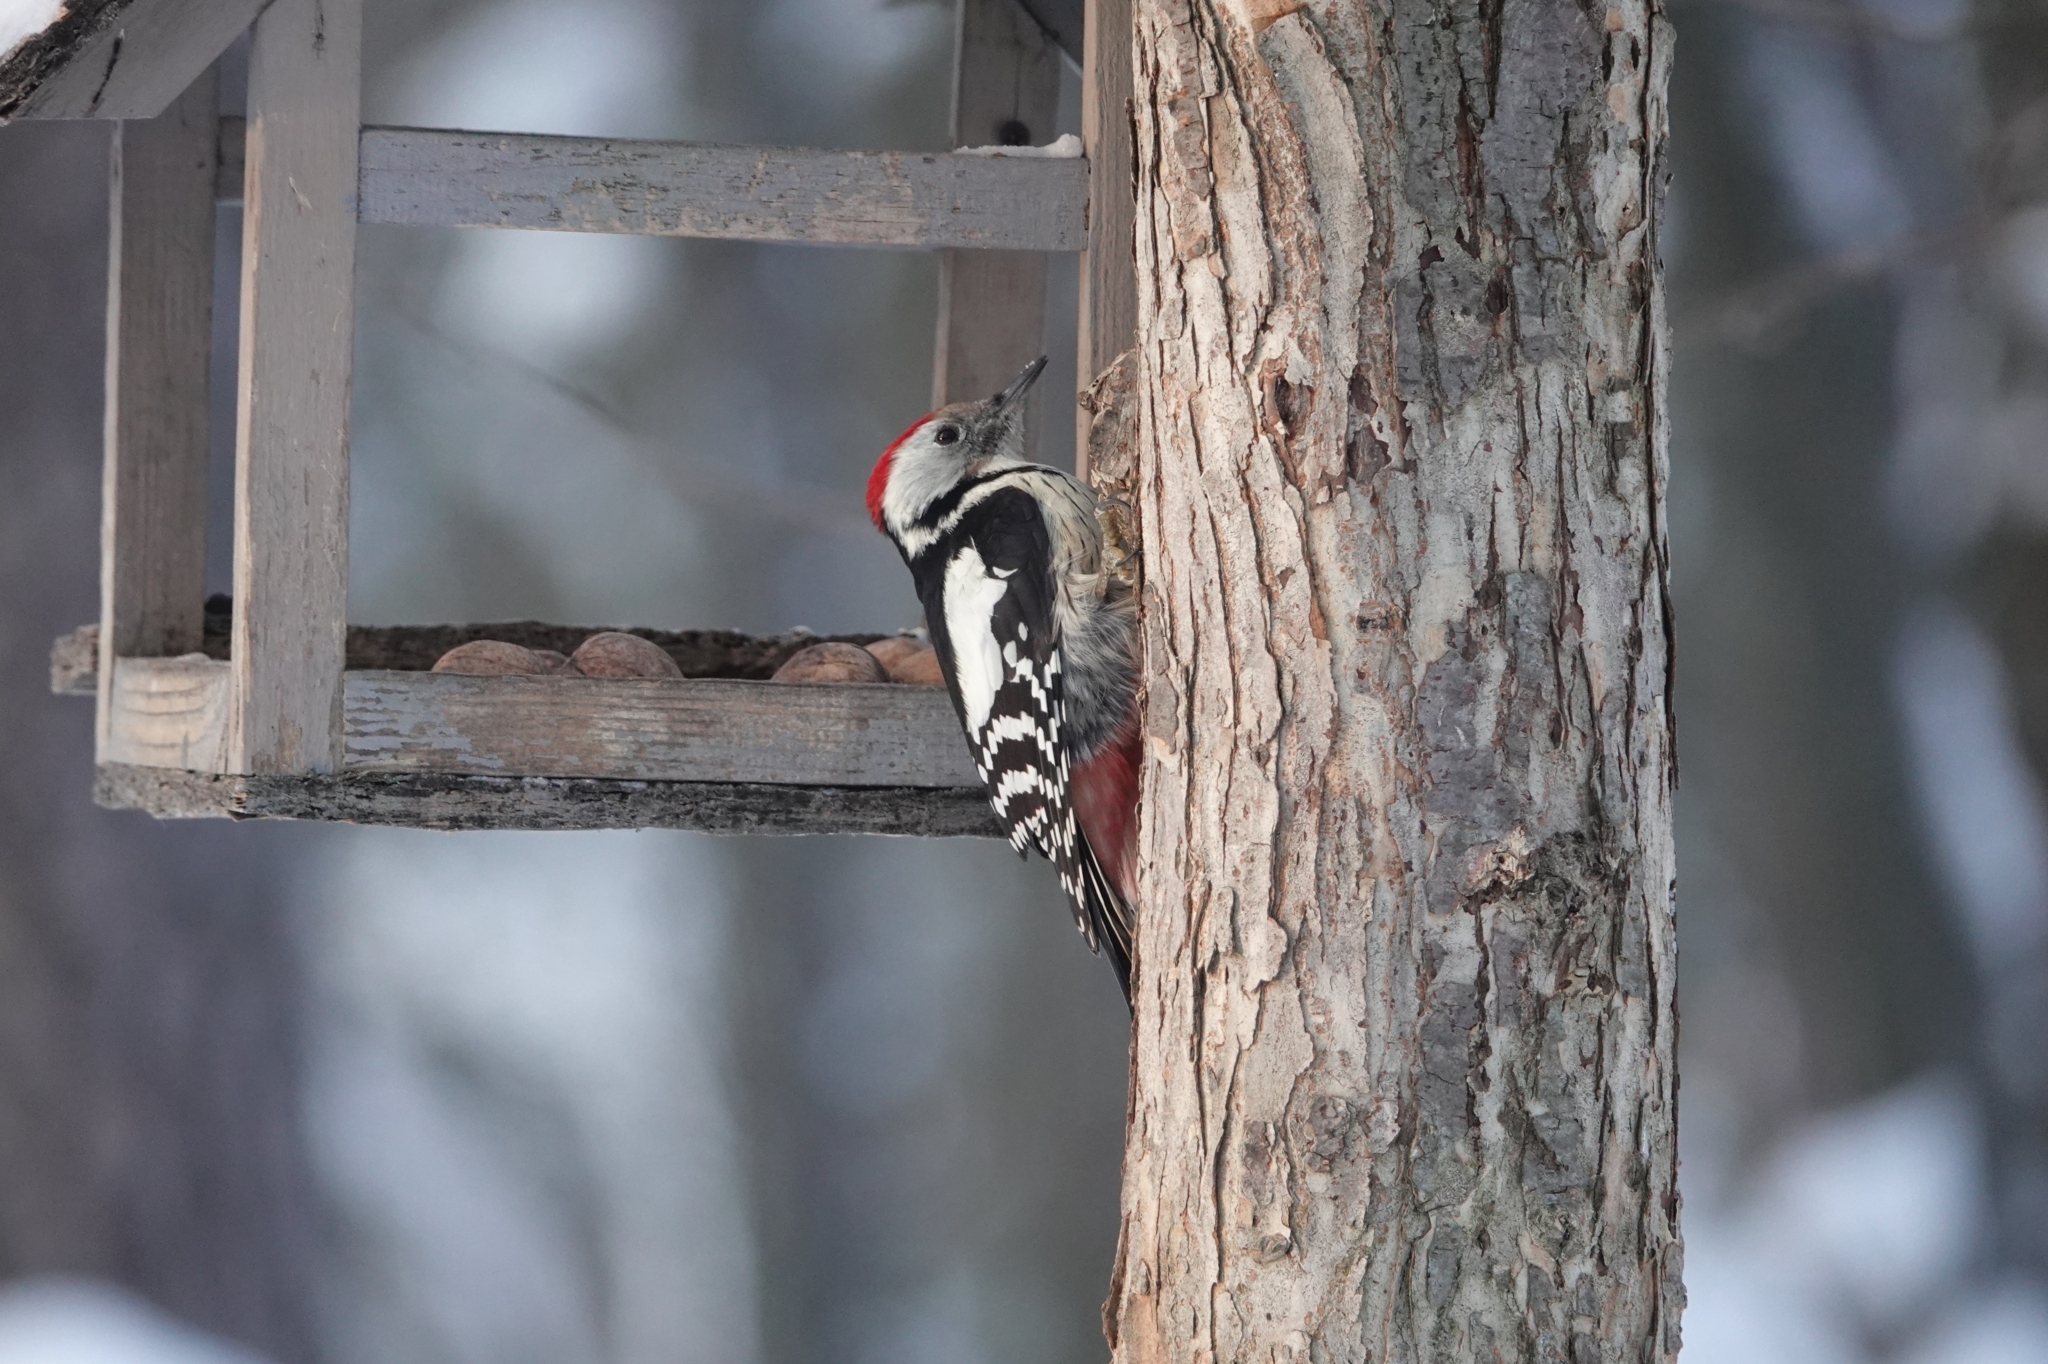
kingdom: Animalia
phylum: Chordata
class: Aves
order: Piciformes
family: Picidae
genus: Dendrocoptes
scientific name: Dendrocoptes medius
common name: Middle spotted woodpecker
